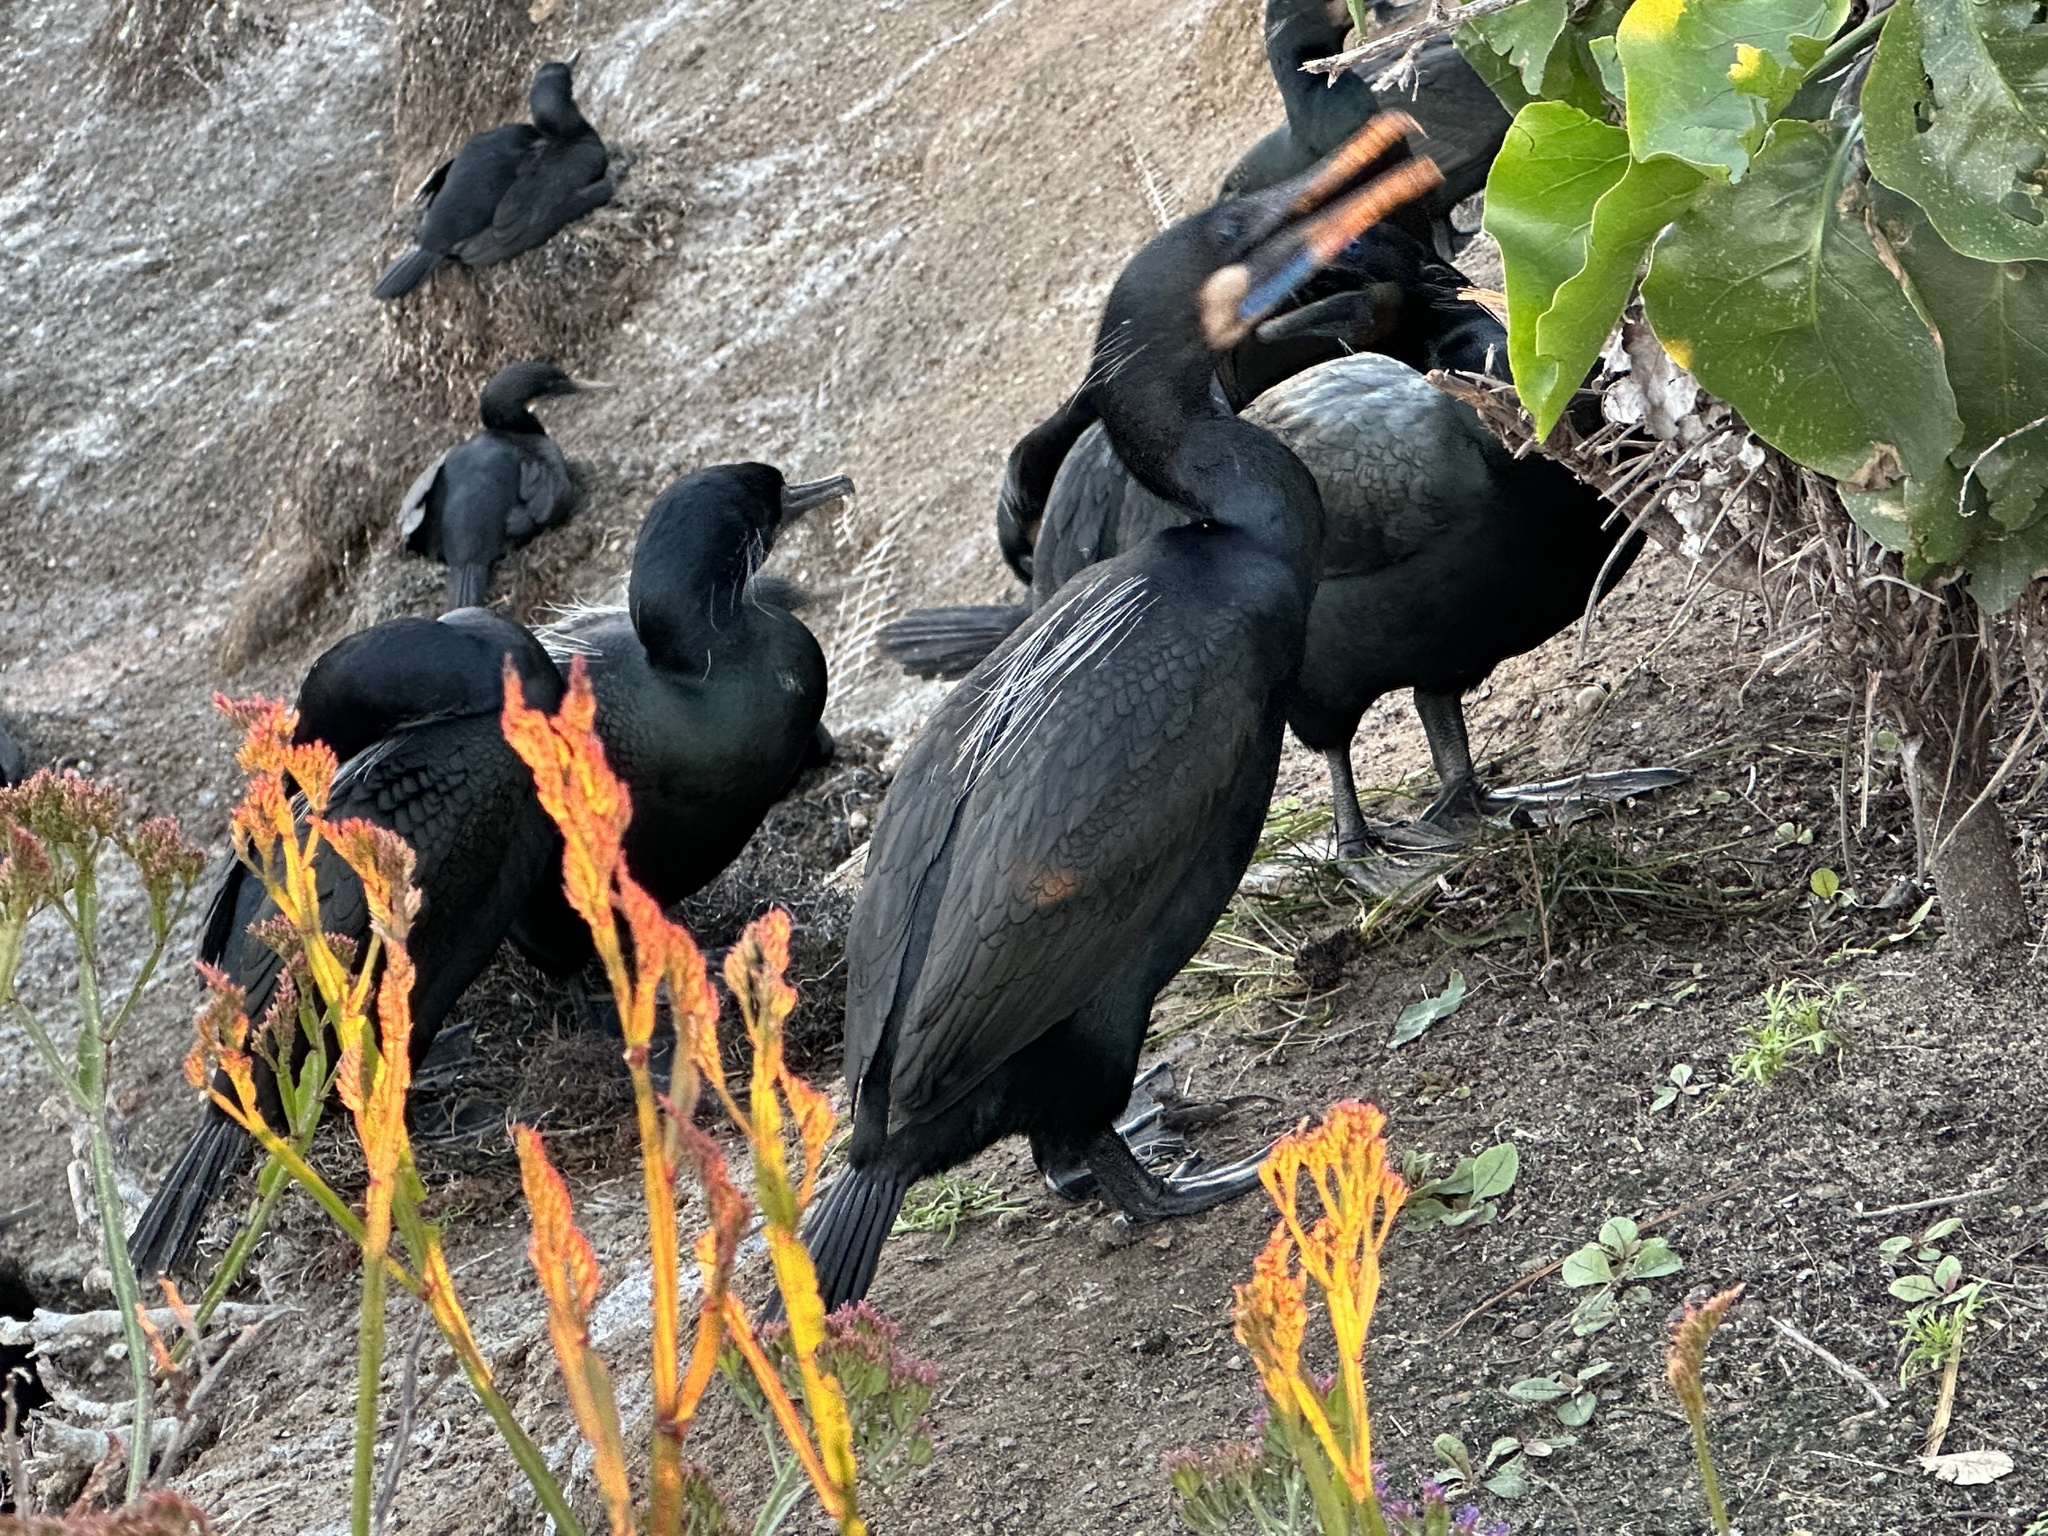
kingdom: Animalia
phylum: Chordata
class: Aves
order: Suliformes
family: Phalacrocoracidae
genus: Urile
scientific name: Urile penicillatus
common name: Brandt's cormorant
